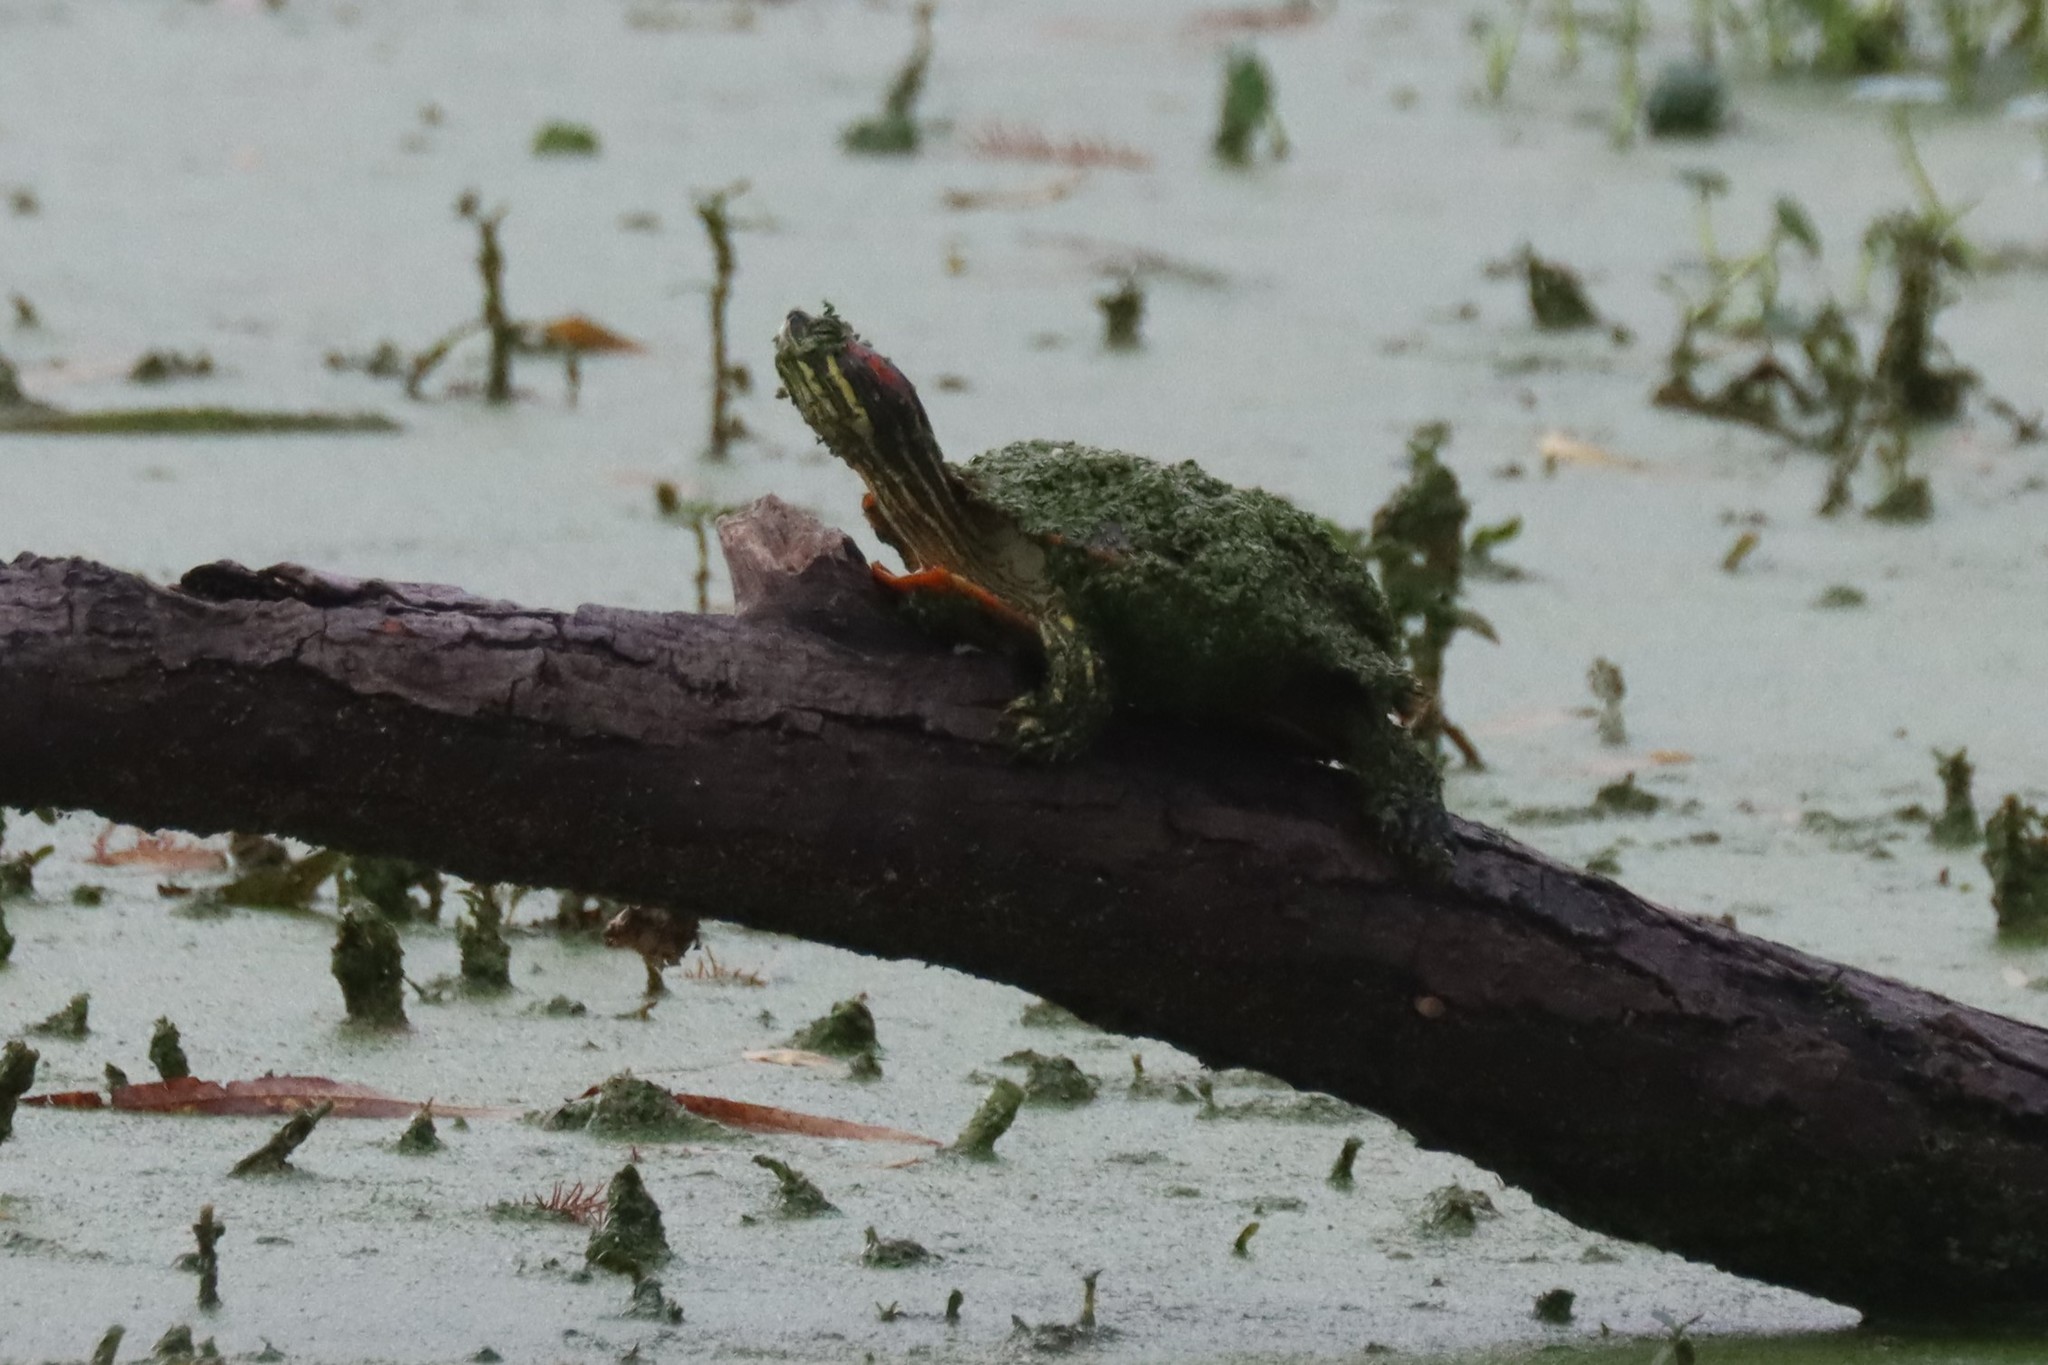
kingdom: Animalia
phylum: Chordata
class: Testudines
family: Emydidae
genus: Trachemys
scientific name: Trachemys scripta
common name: Slider
